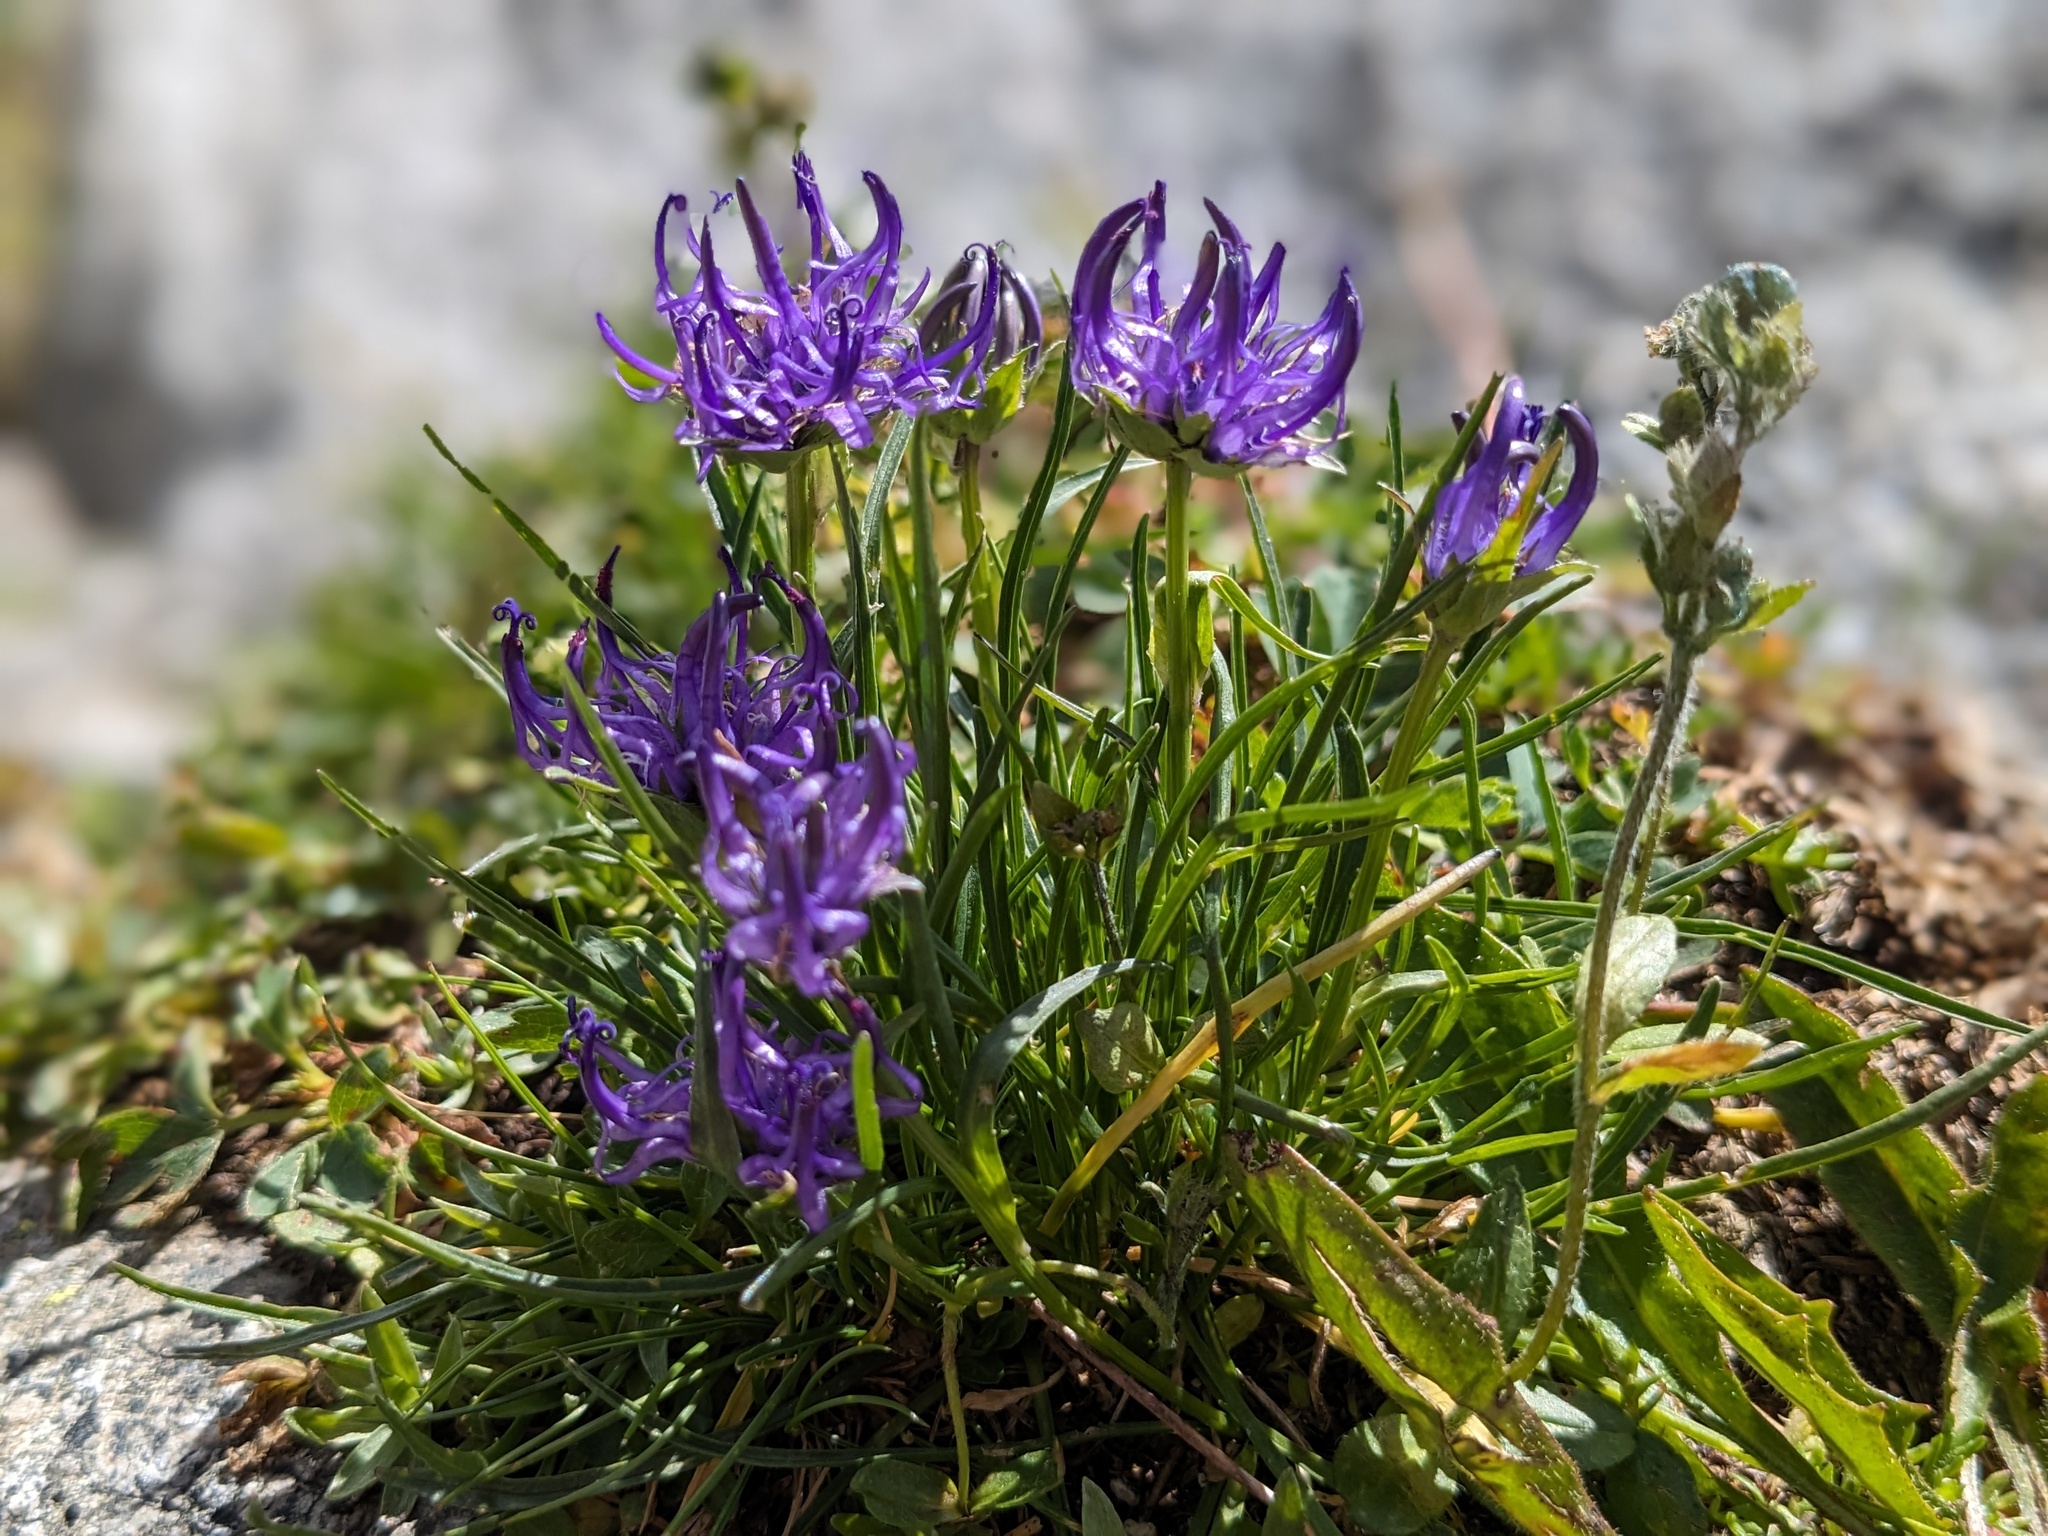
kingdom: Plantae
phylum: Tracheophyta
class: Magnoliopsida
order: Asterales
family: Campanulaceae
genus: Phyteuma
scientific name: Phyteuma hemisphaericum
